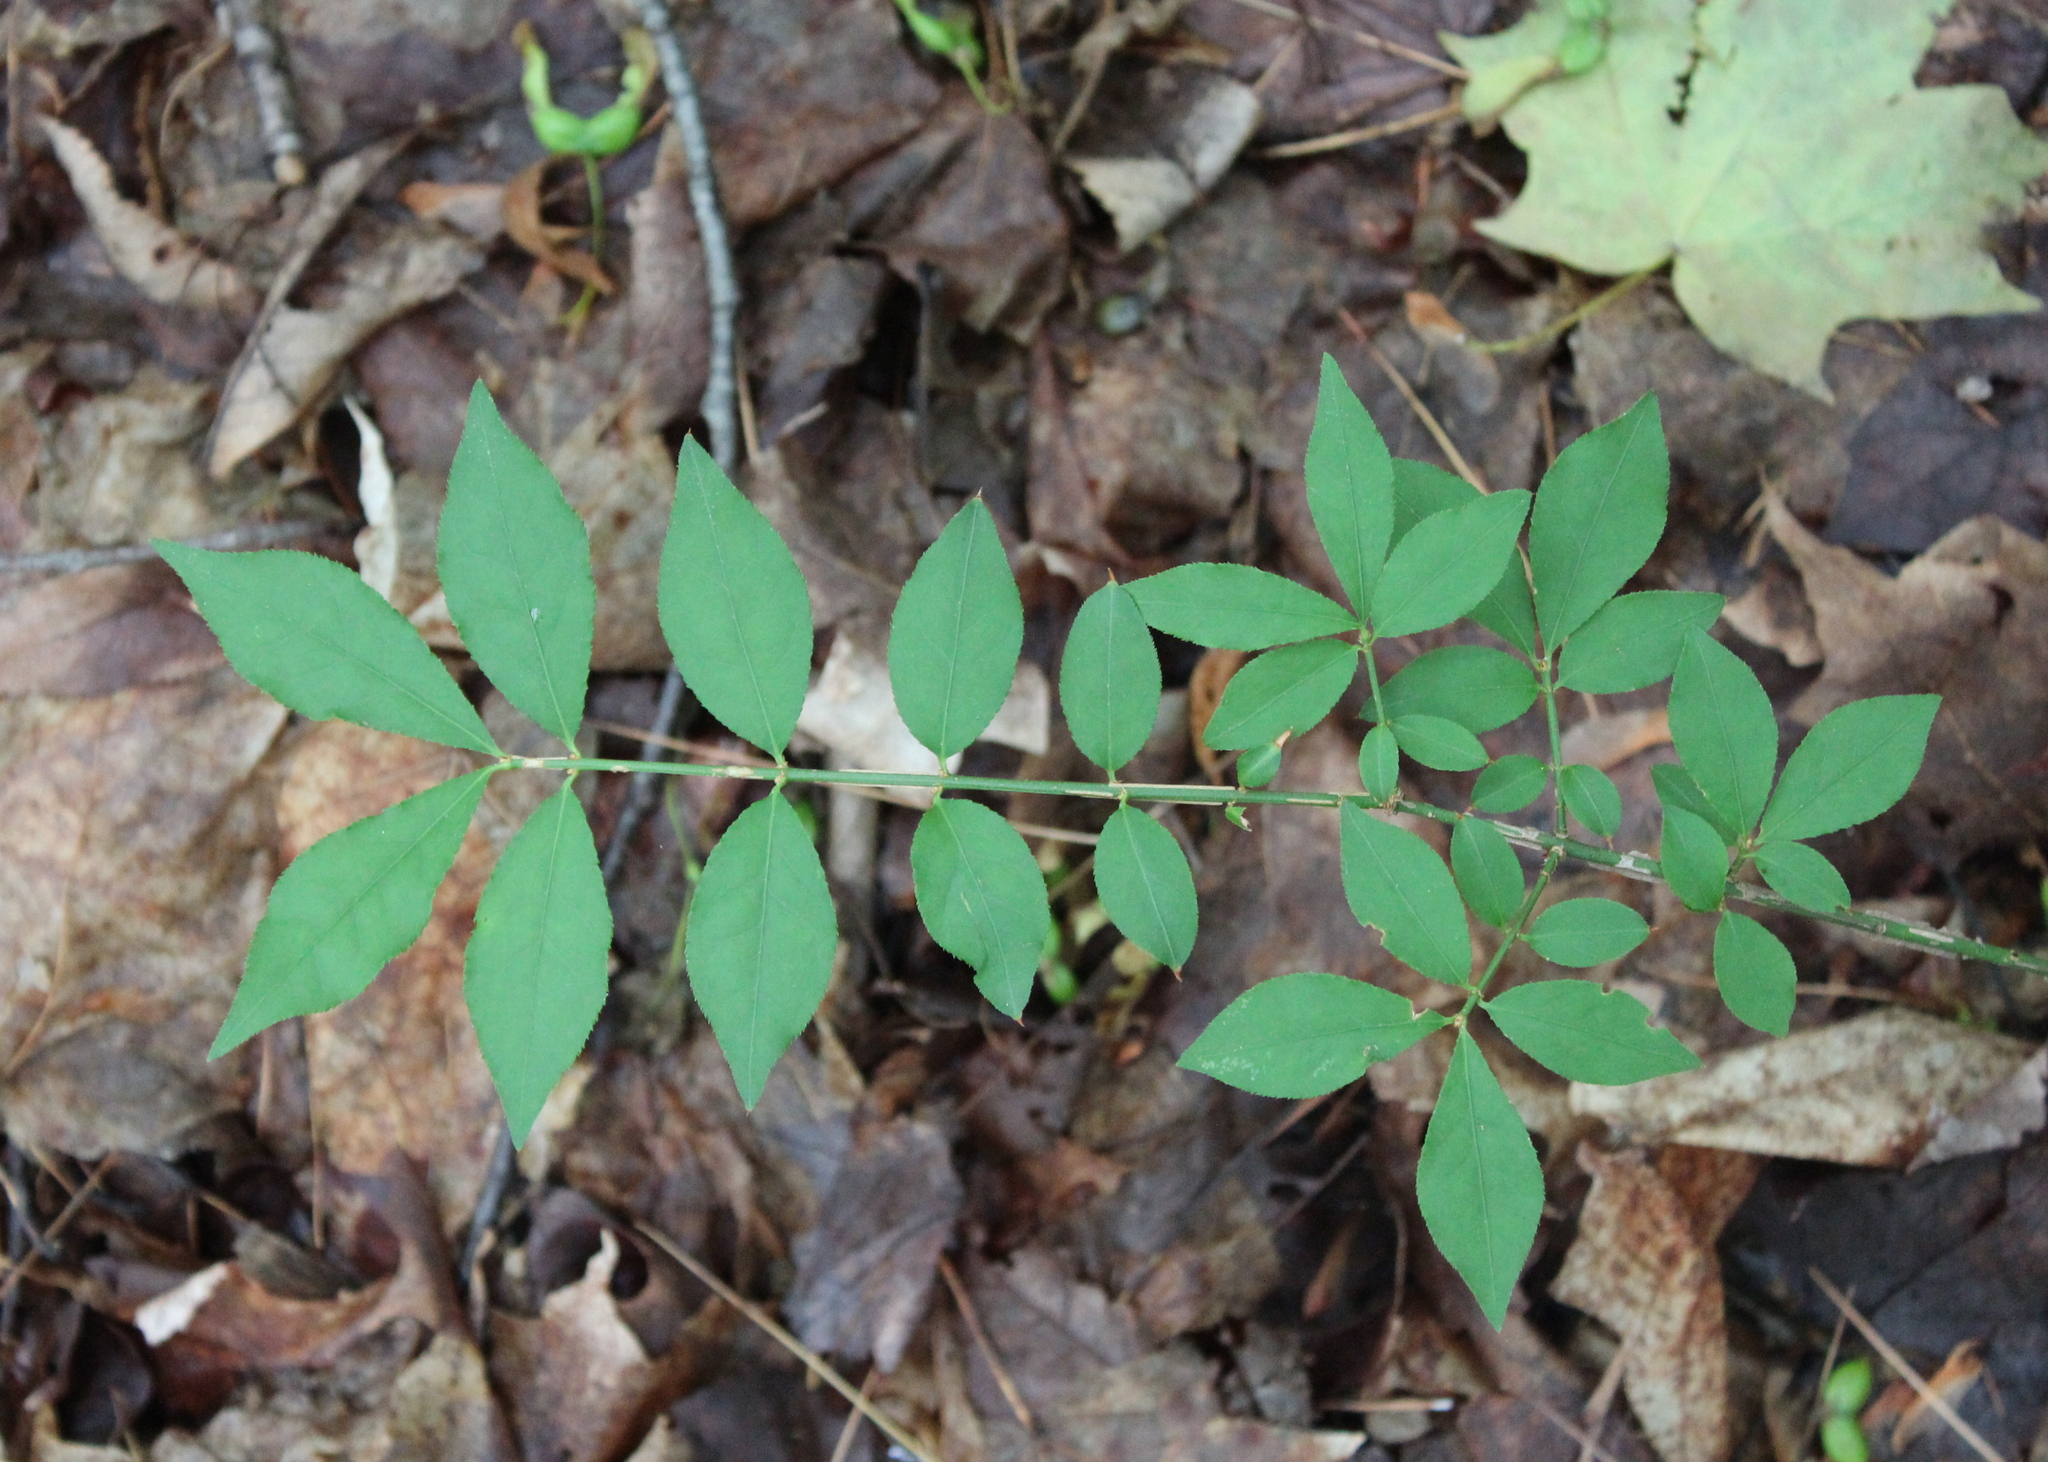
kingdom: Plantae
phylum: Tracheophyta
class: Magnoliopsida
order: Celastrales
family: Celastraceae
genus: Euonymus
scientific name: Euonymus alatus
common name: Winged euonymus
